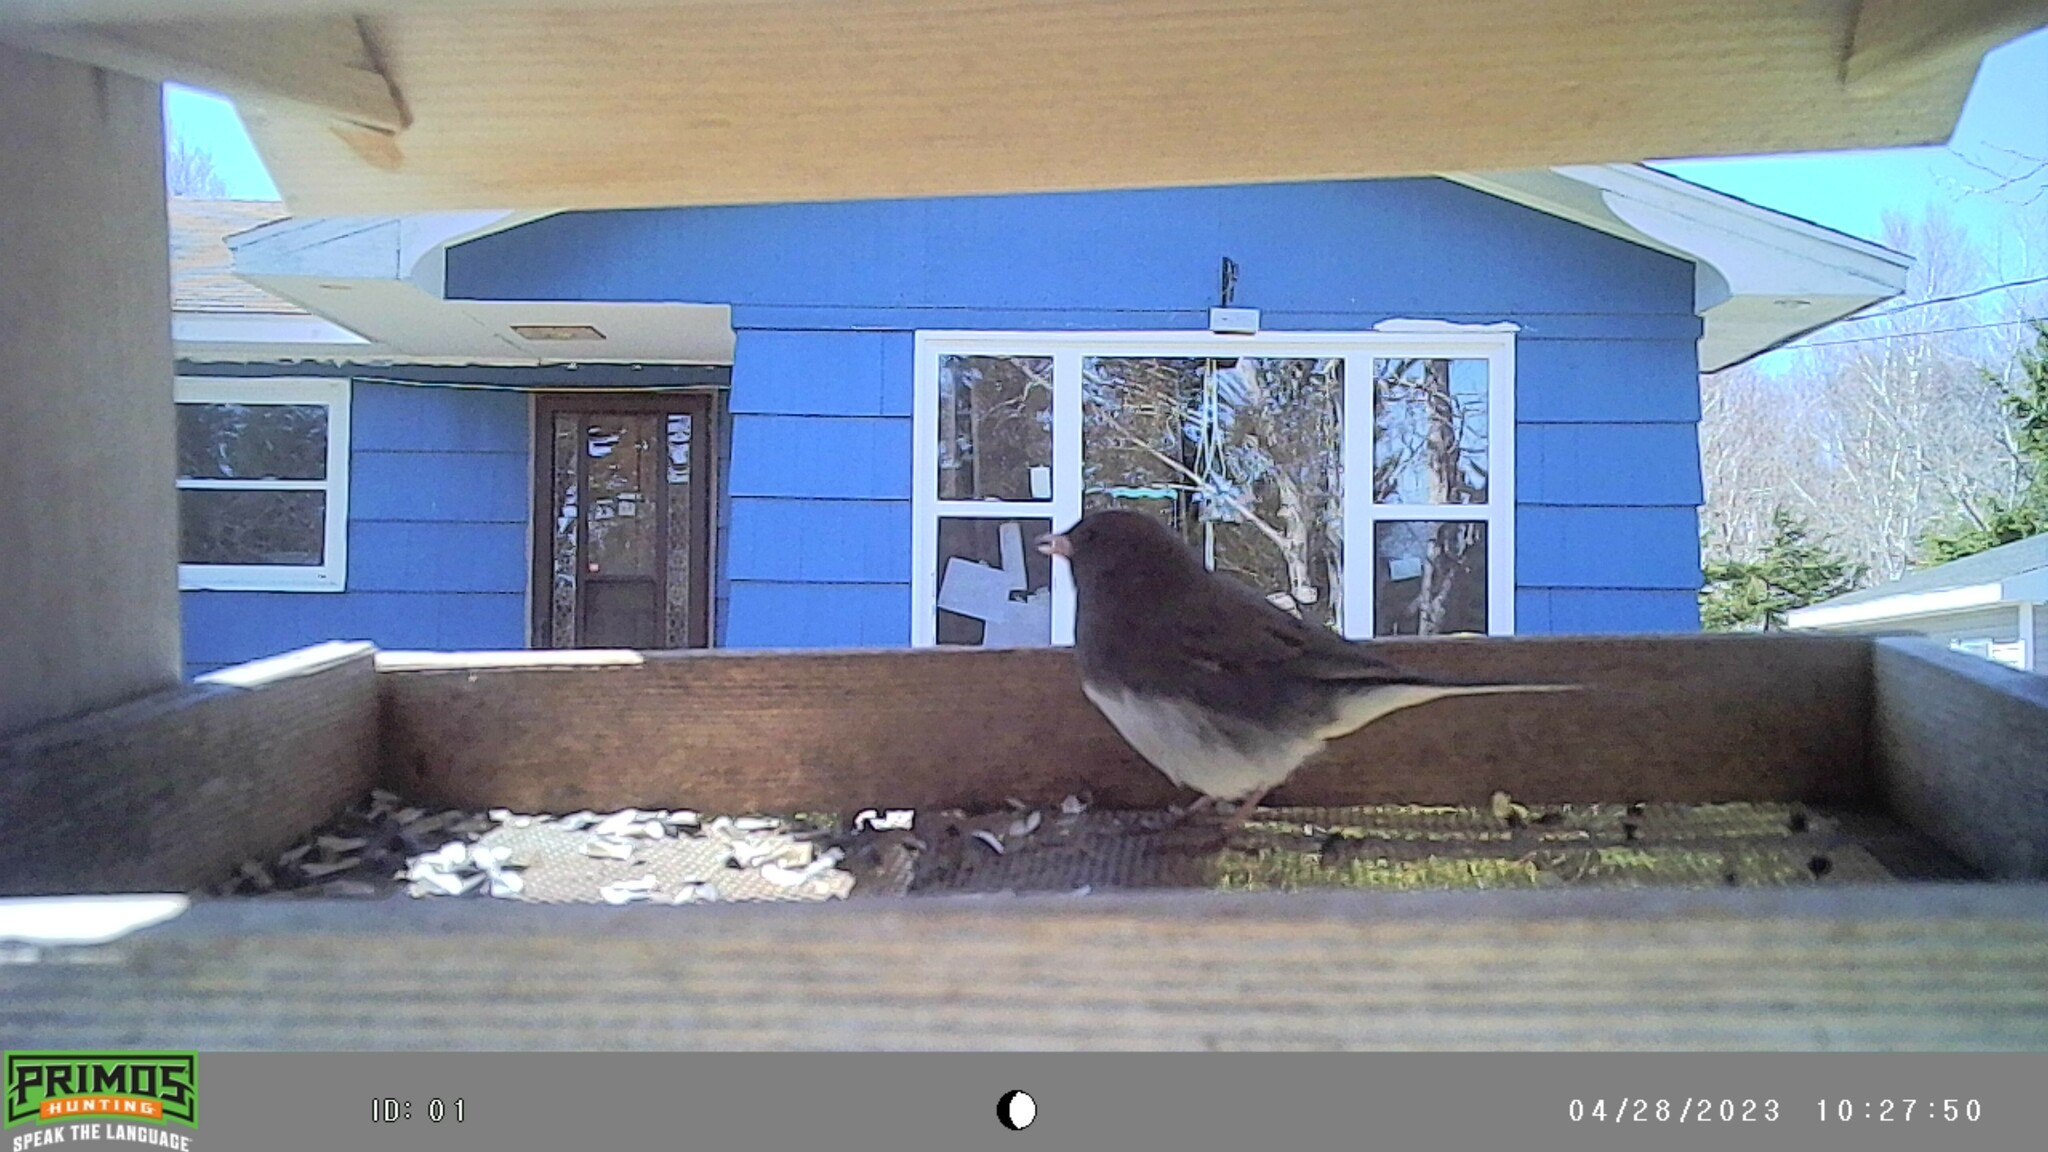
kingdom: Animalia
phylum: Chordata
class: Aves
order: Passeriformes
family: Passerellidae
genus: Junco
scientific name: Junco hyemalis
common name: Dark-eyed junco
